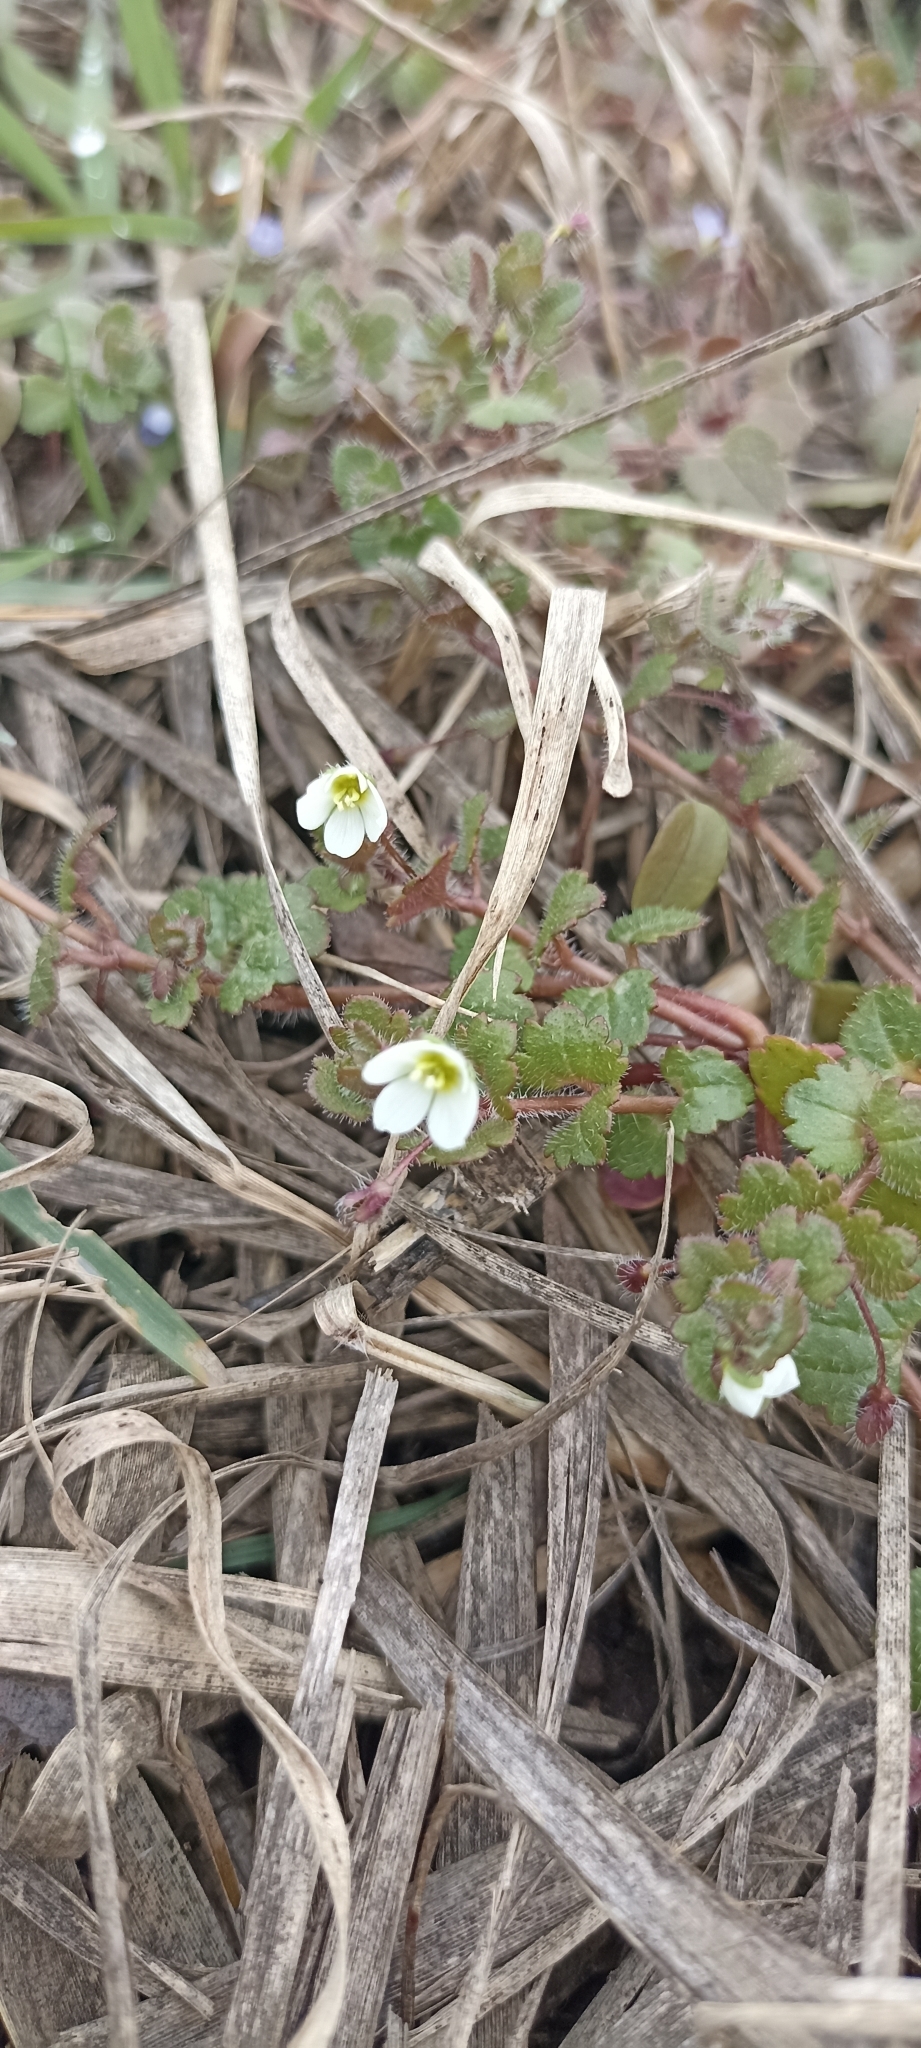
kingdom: Plantae
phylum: Tracheophyta
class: Magnoliopsida
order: Lamiales
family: Plantaginaceae
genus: Veronica
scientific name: Veronica cymbalaria
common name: Pale speedwell
